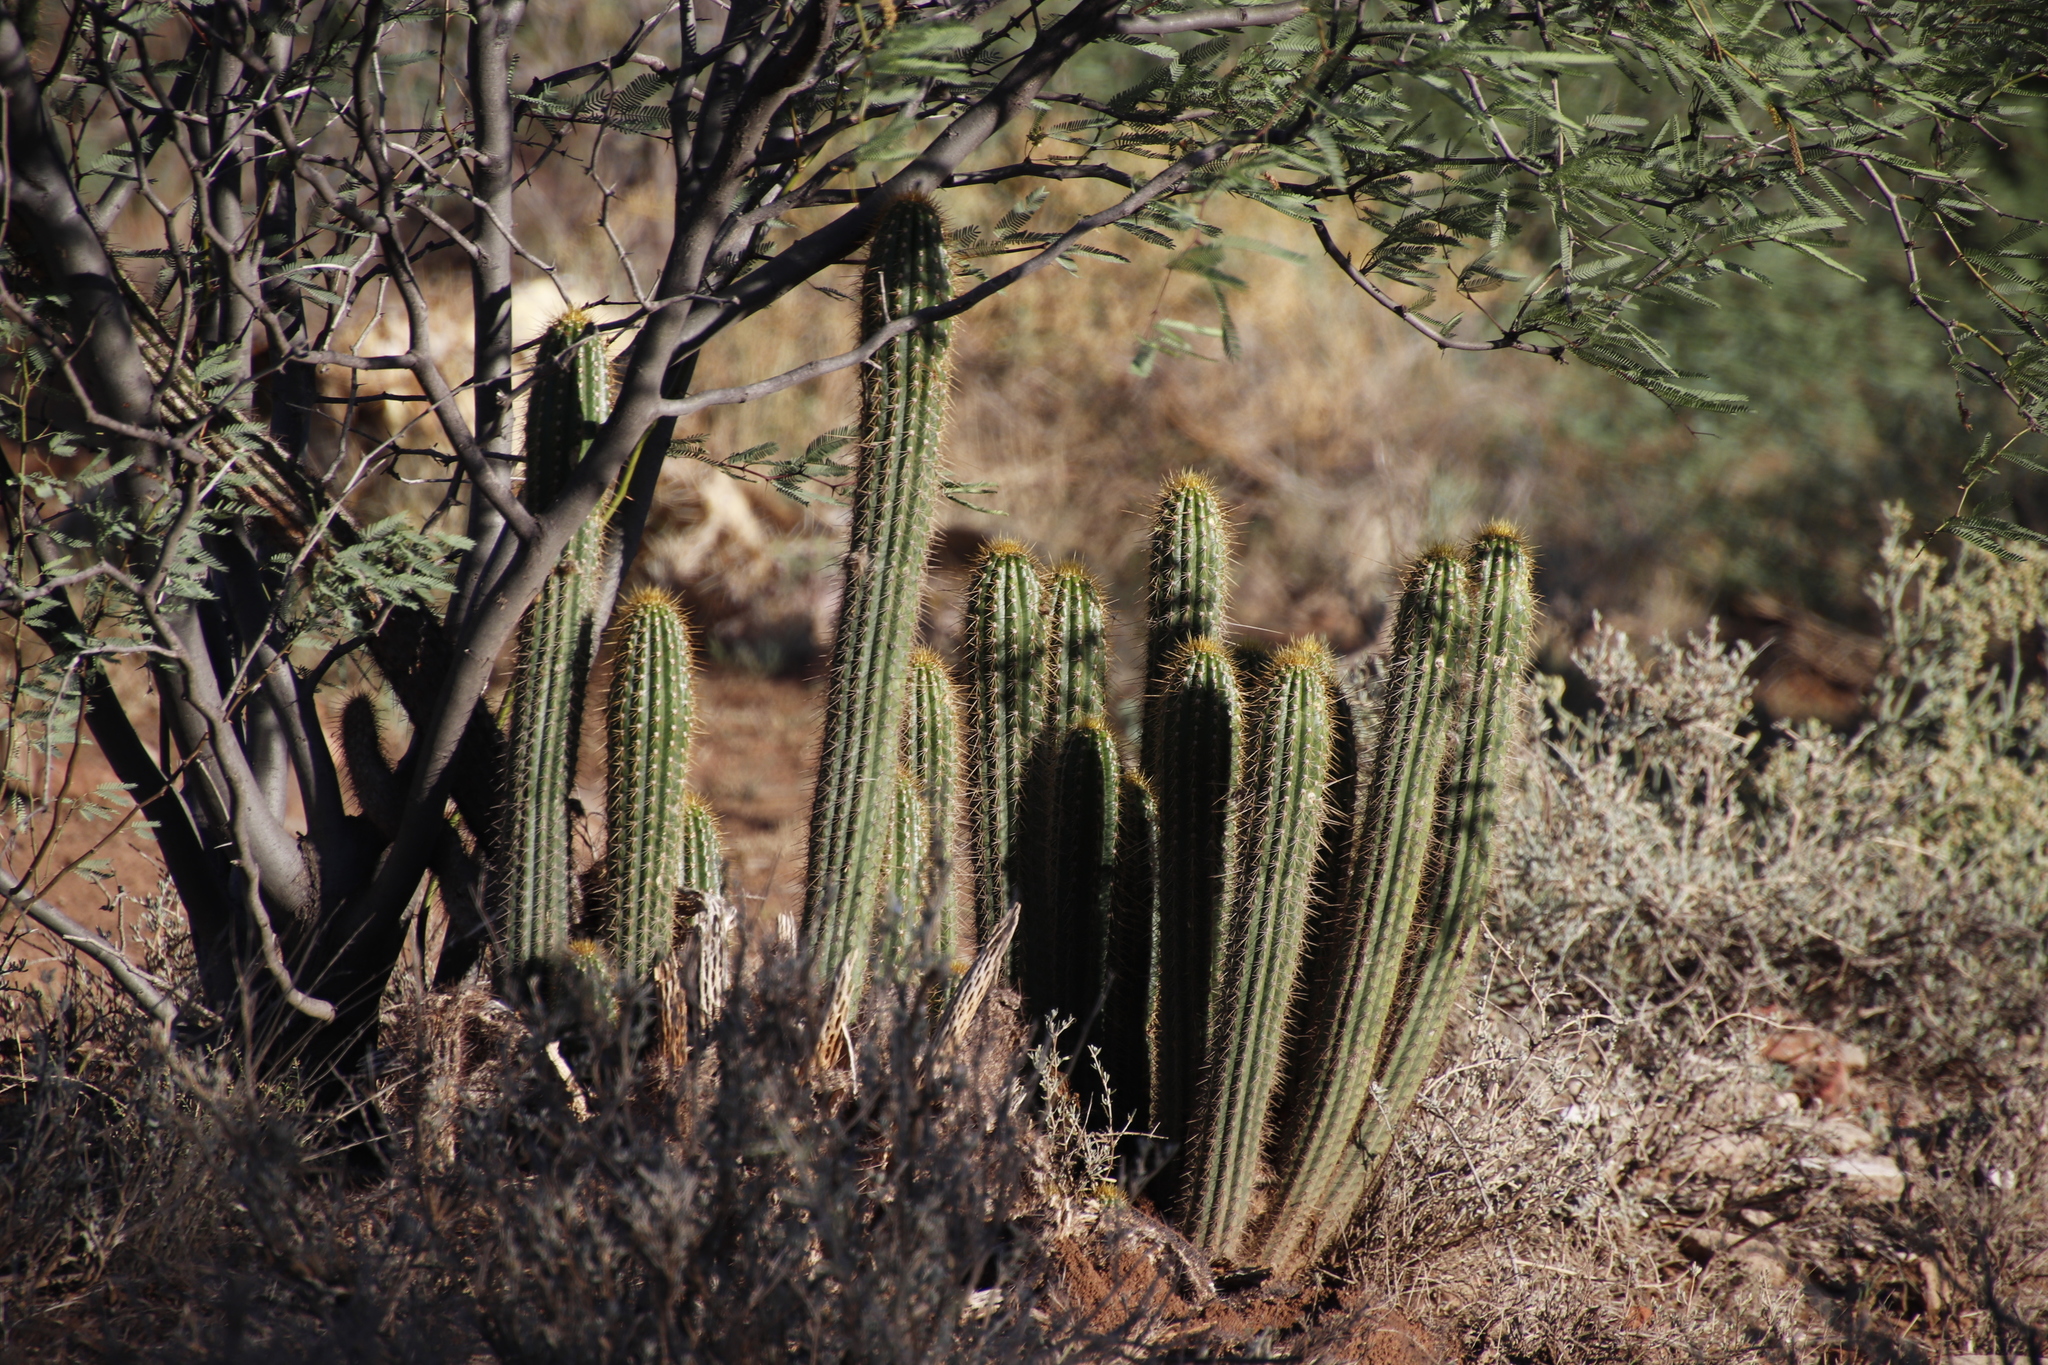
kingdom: Plantae
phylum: Tracheophyta
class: Magnoliopsida
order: Caryophyllales
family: Cactaceae
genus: Soehrensia
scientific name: Soehrensia spachiana
